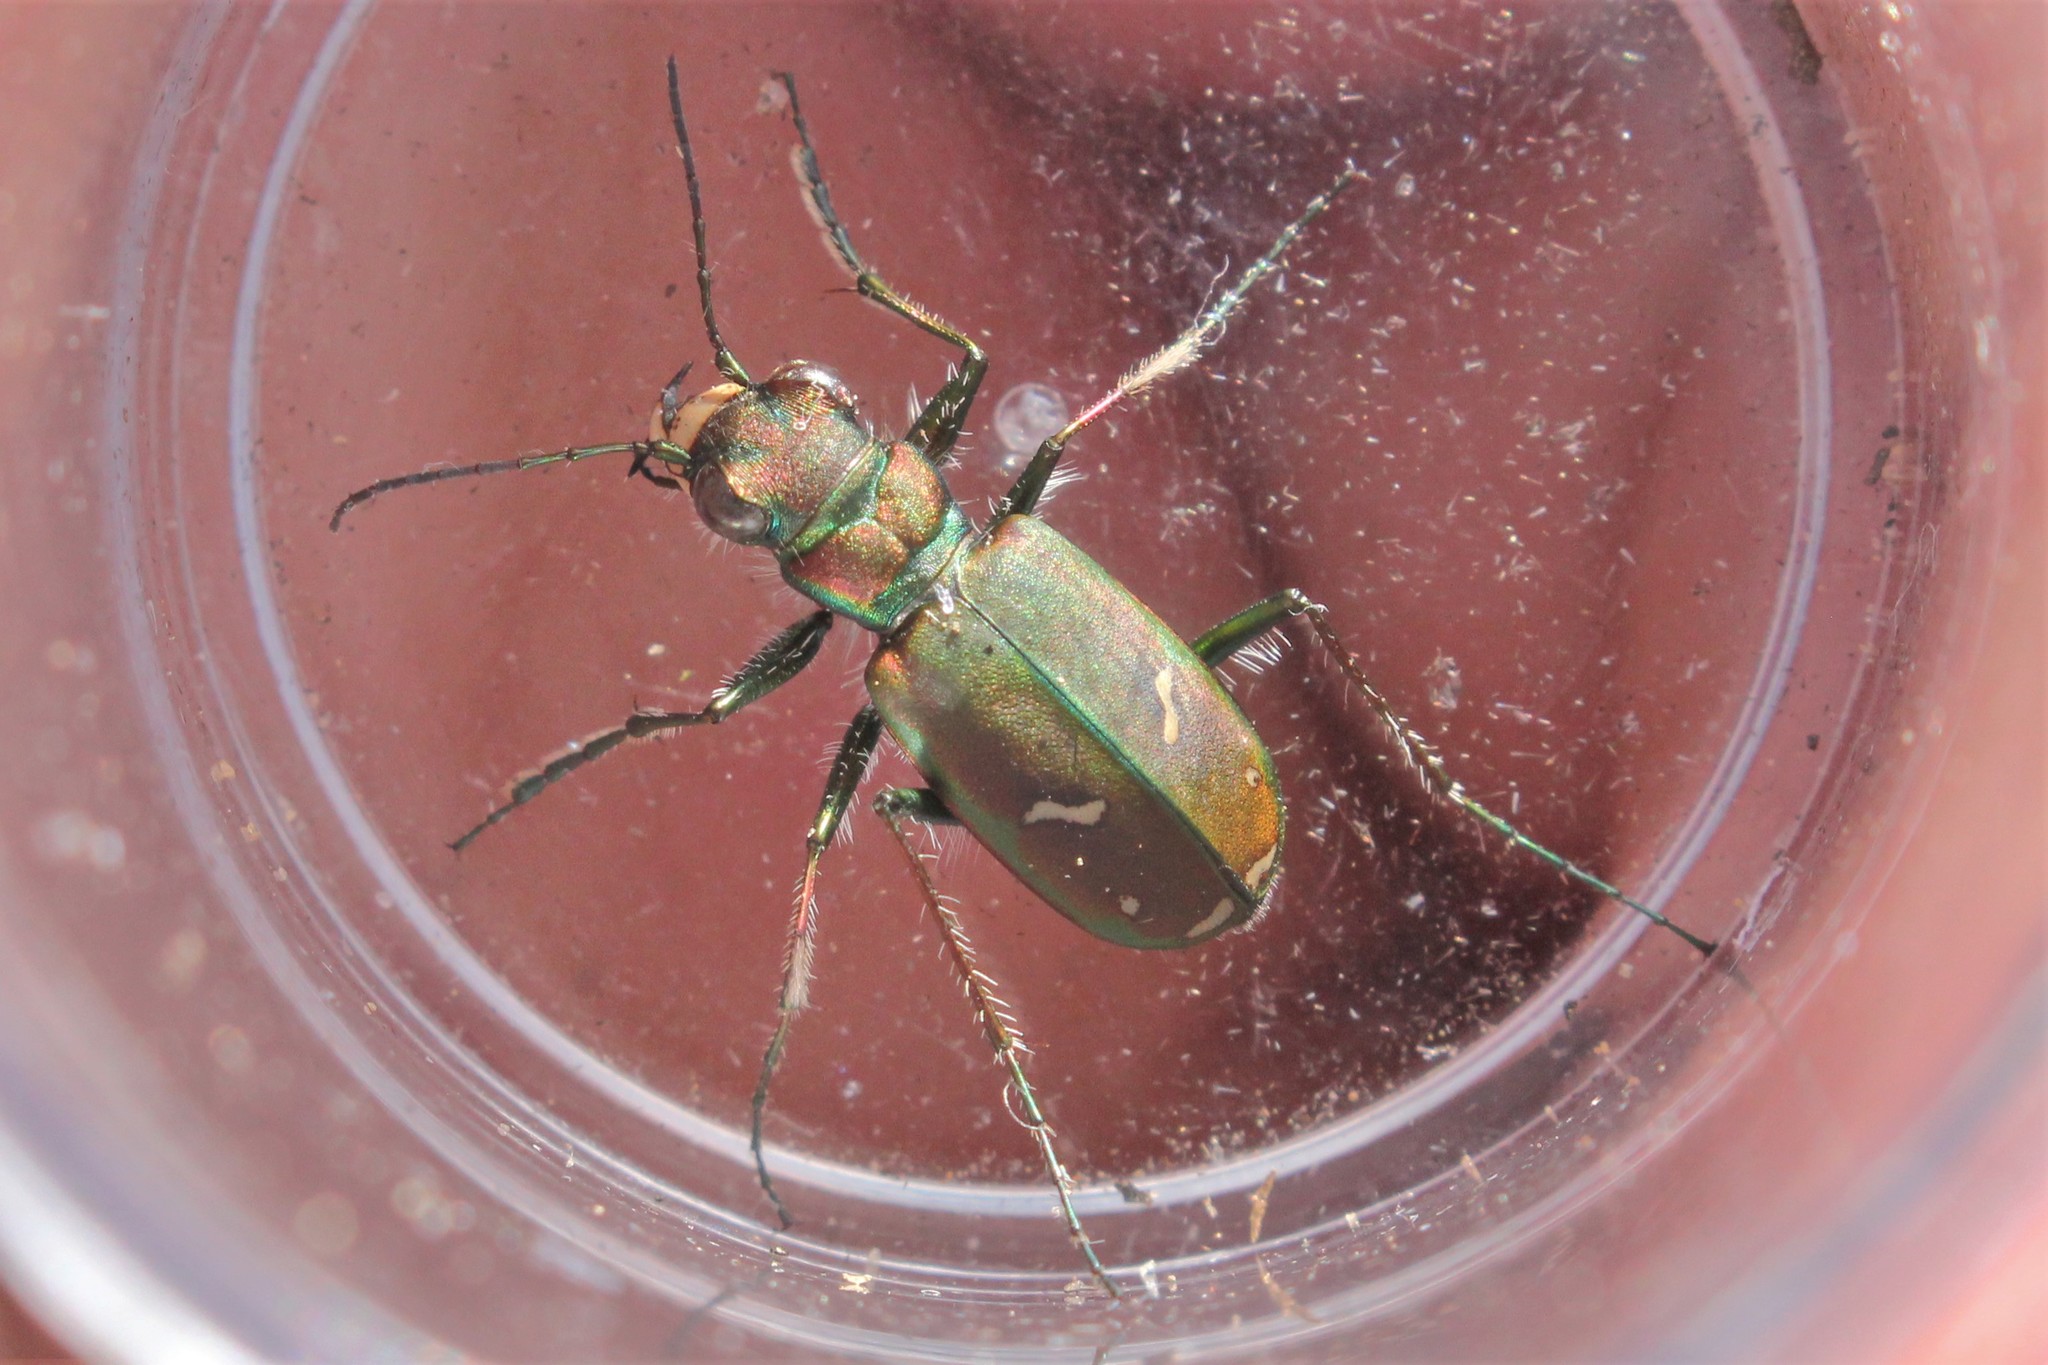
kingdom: Animalia
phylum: Arthropoda
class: Insecta
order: Coleoptera
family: Carabidae
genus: Cicindela
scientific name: Cicindela purpurea
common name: Cow path tiger beetle
